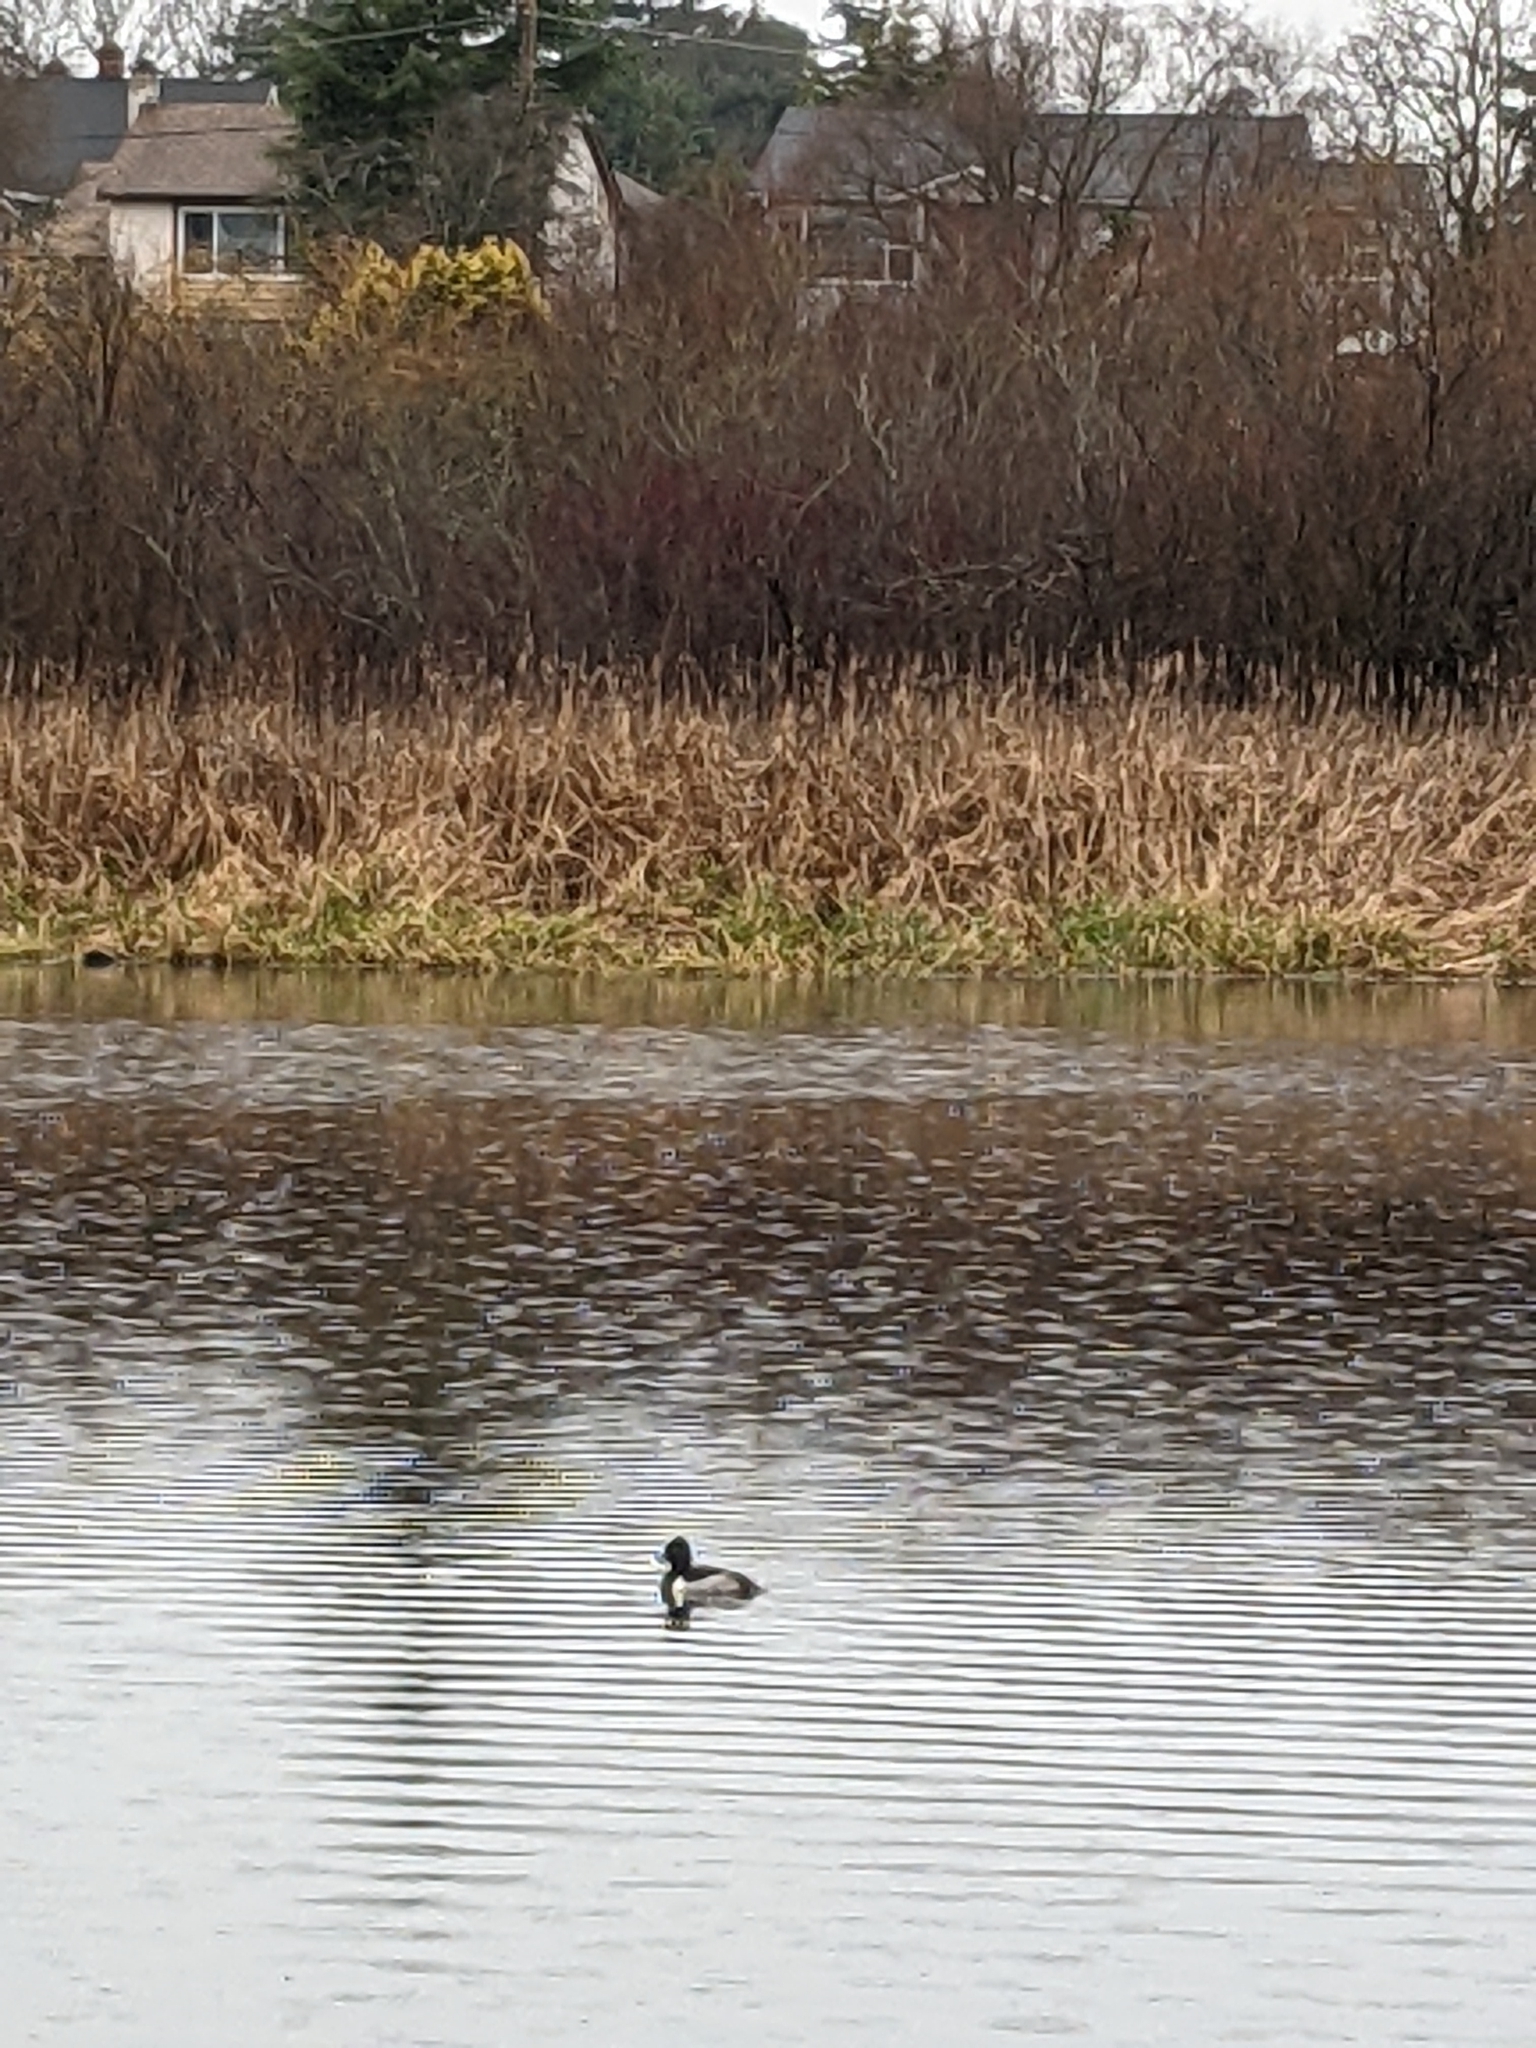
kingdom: Animalia
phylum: Chordata
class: Aves
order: Anseriformes
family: Anatidae
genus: Aythya
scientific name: Aythya collaris
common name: Ring-necked duck
